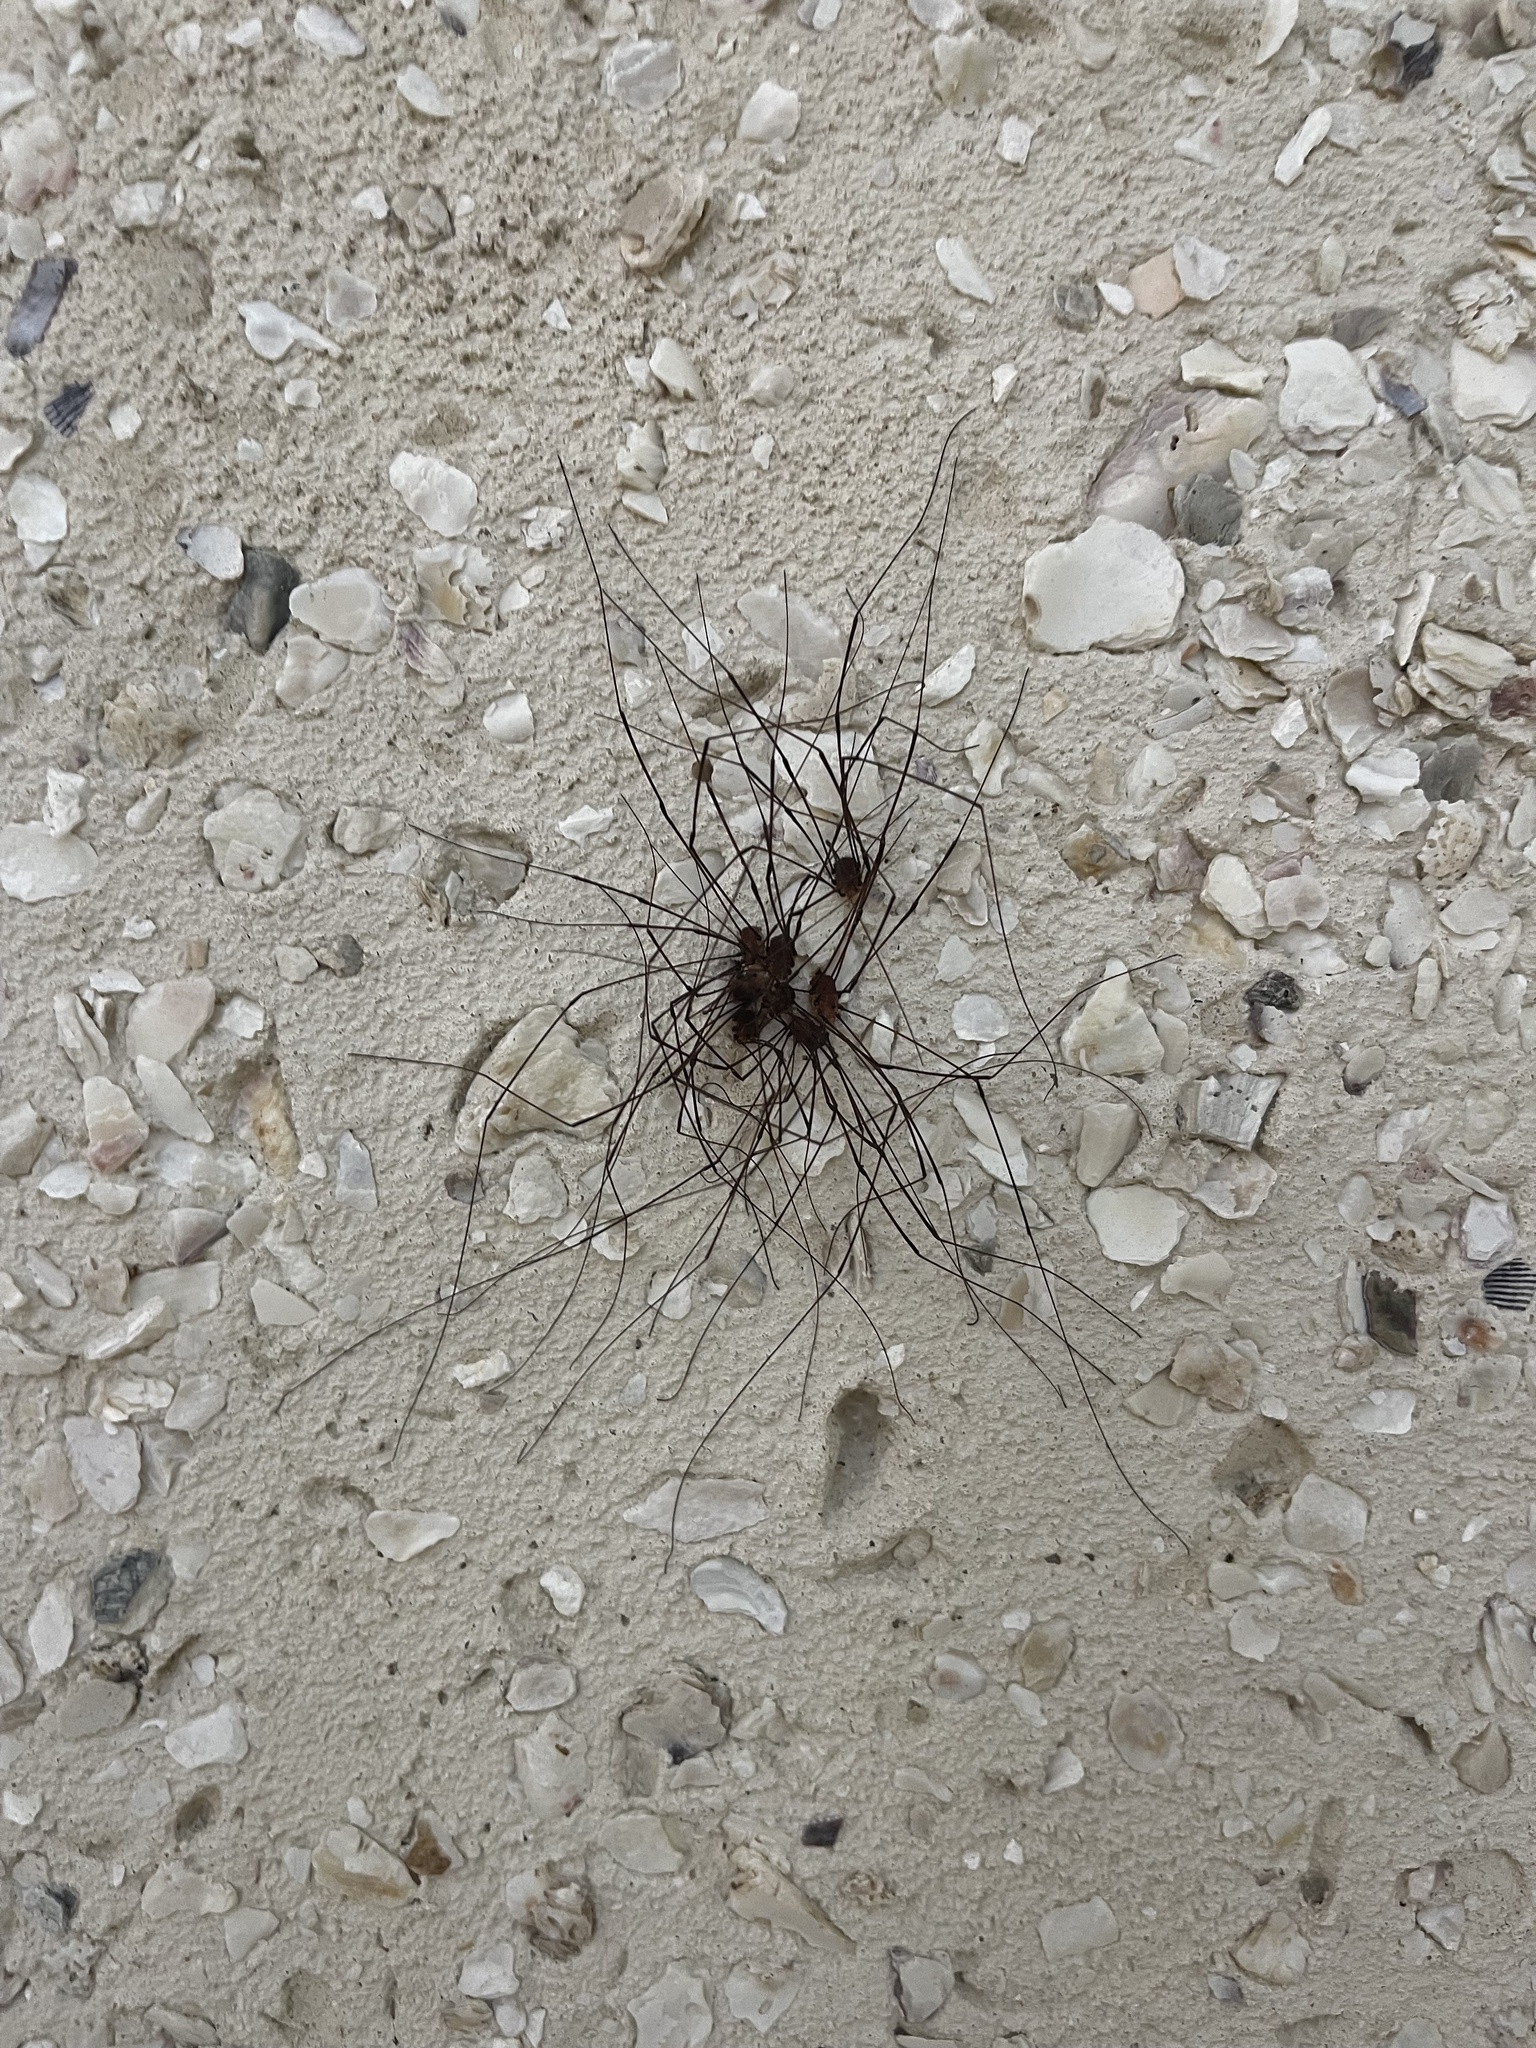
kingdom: Animalia
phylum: Arthropoda
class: Arachnida
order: Opiliones
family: Sclerosomatidae
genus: Leiobunum
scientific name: Leiobunum vittatum
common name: Eastern harvestman
